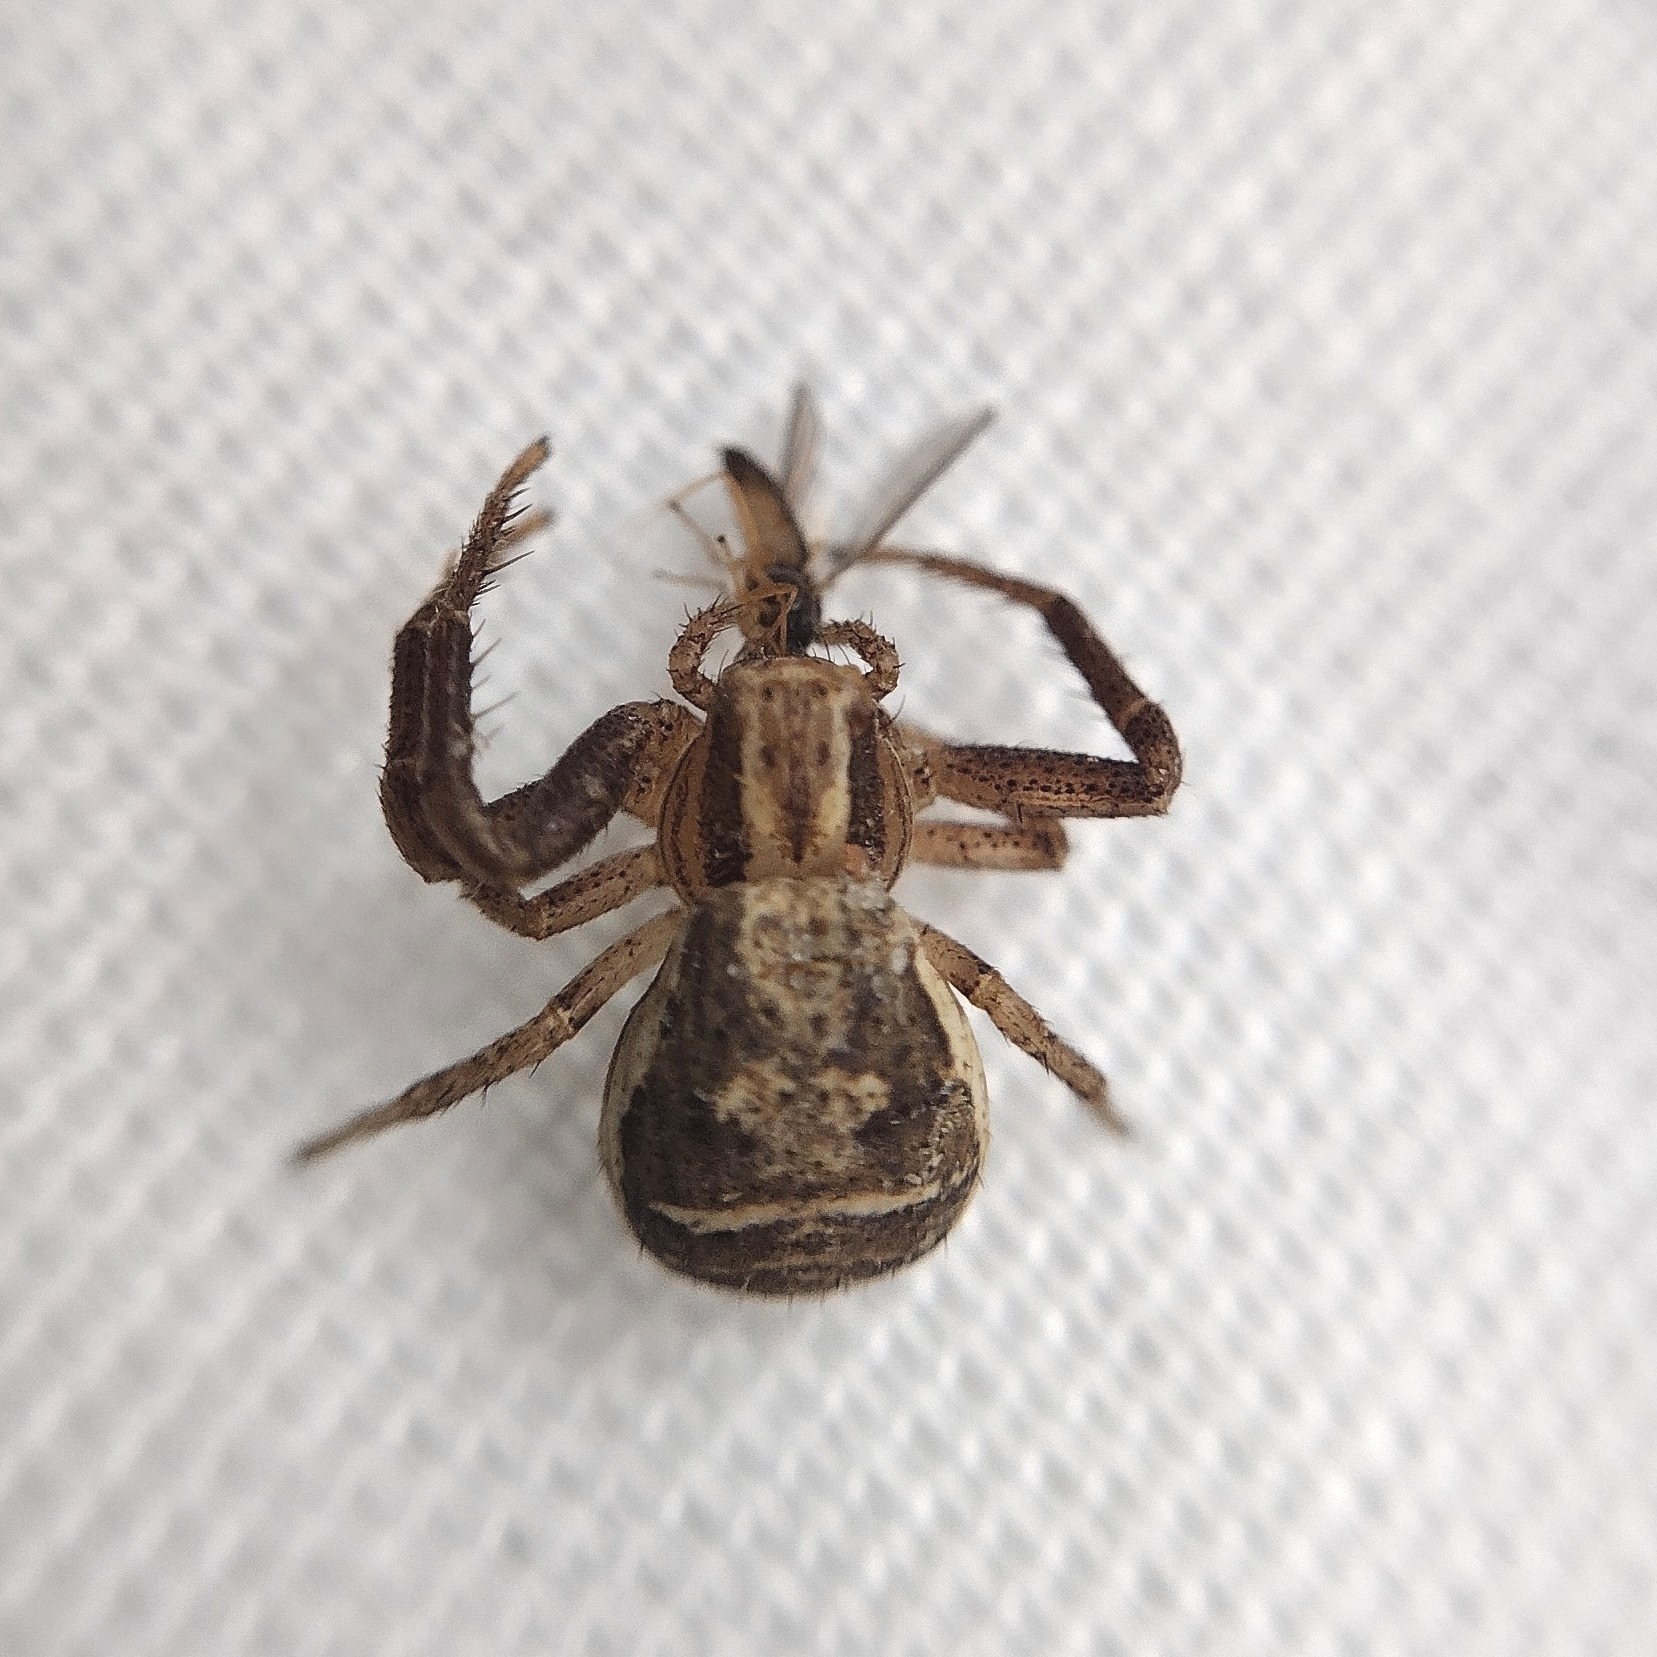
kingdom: Animalia
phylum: Arthropoda
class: Arachnida
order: Araneae
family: Thomisidae
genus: Xysticus
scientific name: Xysticus ulmi
